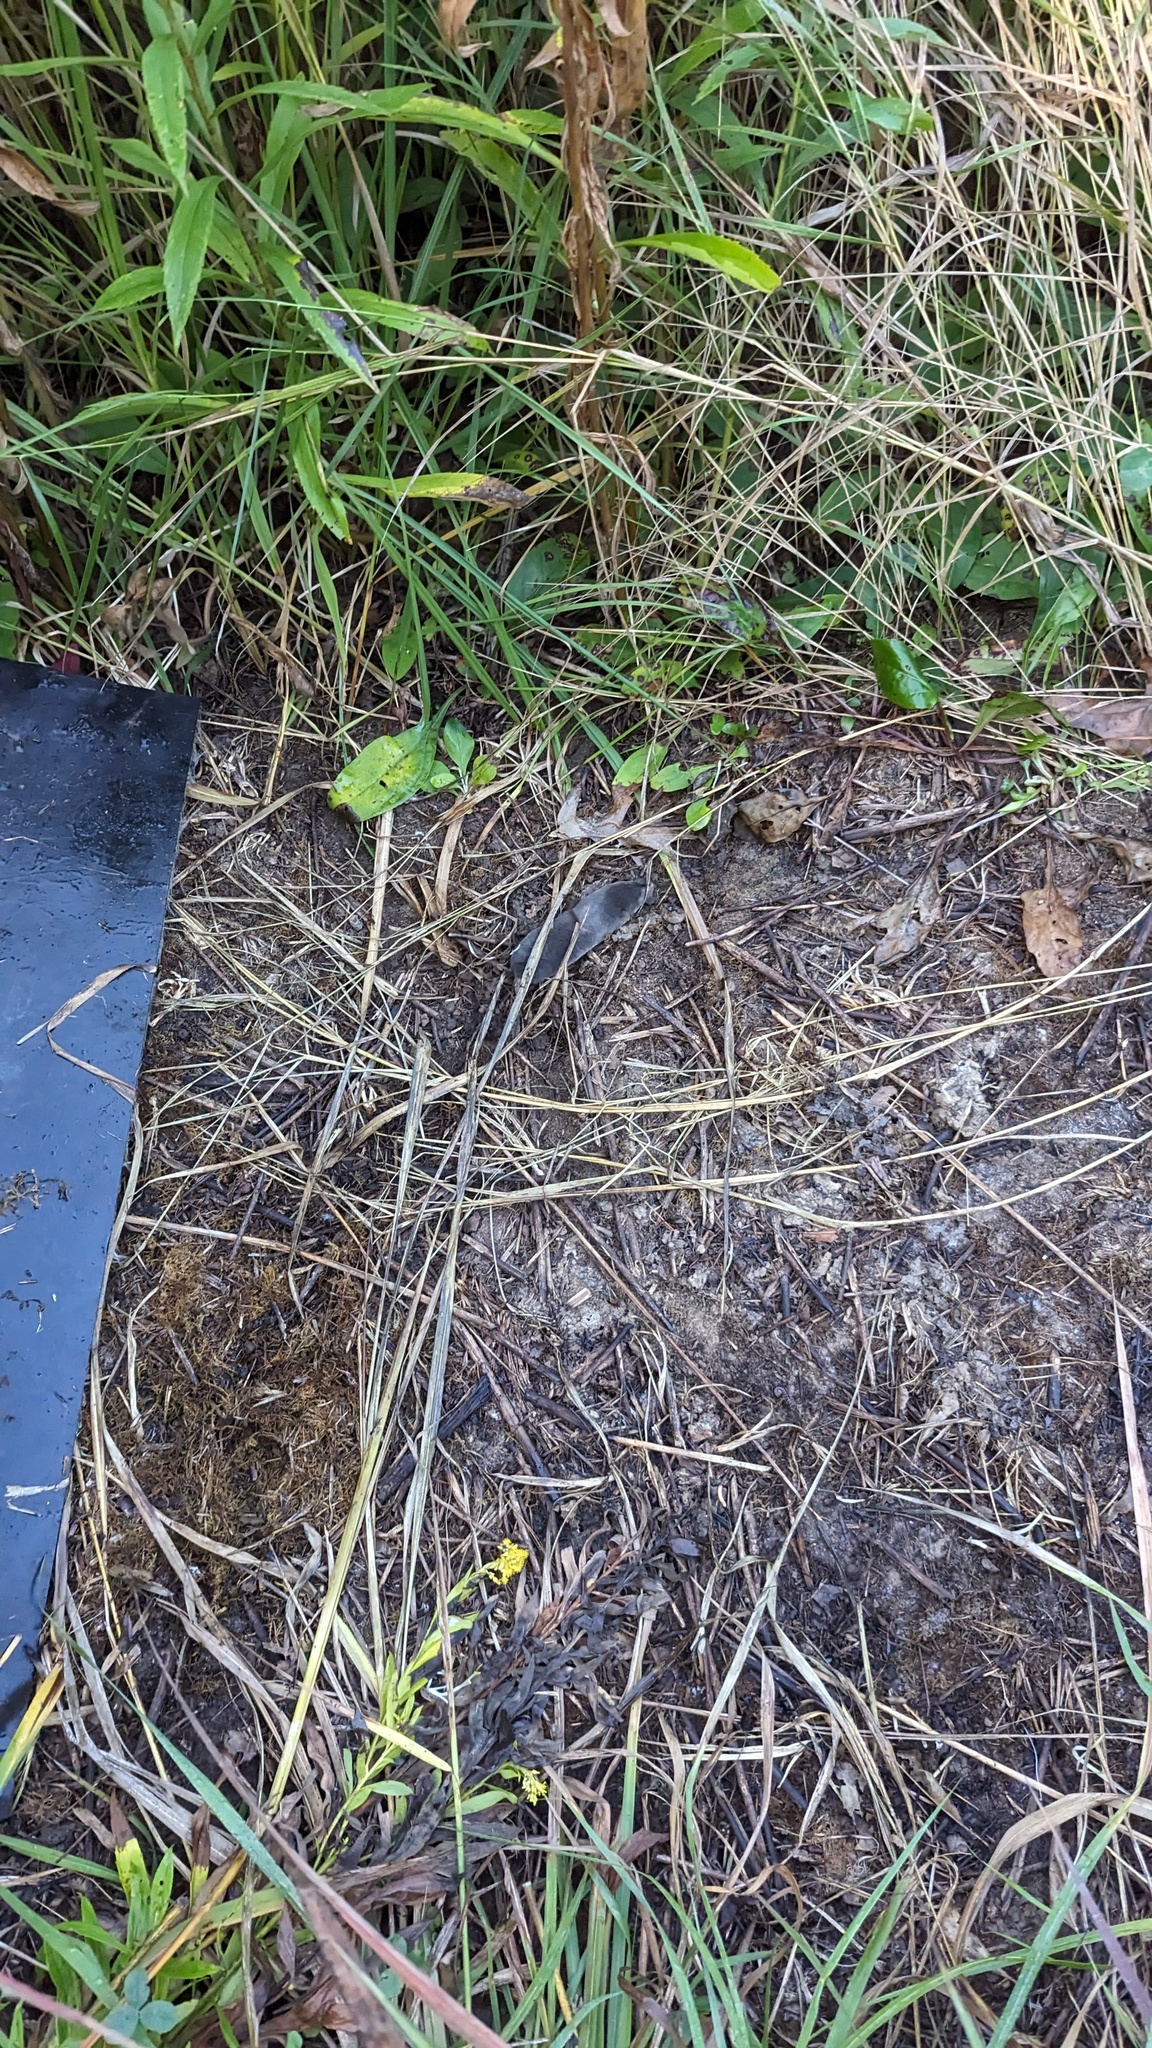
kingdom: Animalia
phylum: Chordata
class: Mammalia
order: Soricomorpha
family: Soricidae
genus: Blarina
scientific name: Blarina brevicauda
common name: Northern short-tailed shrew
